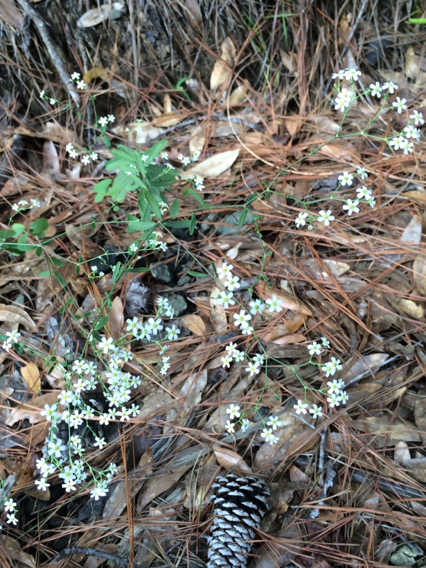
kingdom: Plantae
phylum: Tracheophyta
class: Magnoliopsida
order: Malpighiales
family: Euphorbiaceae
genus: Euphorbia
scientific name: Euphorbia corollata
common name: Flowering spurge
